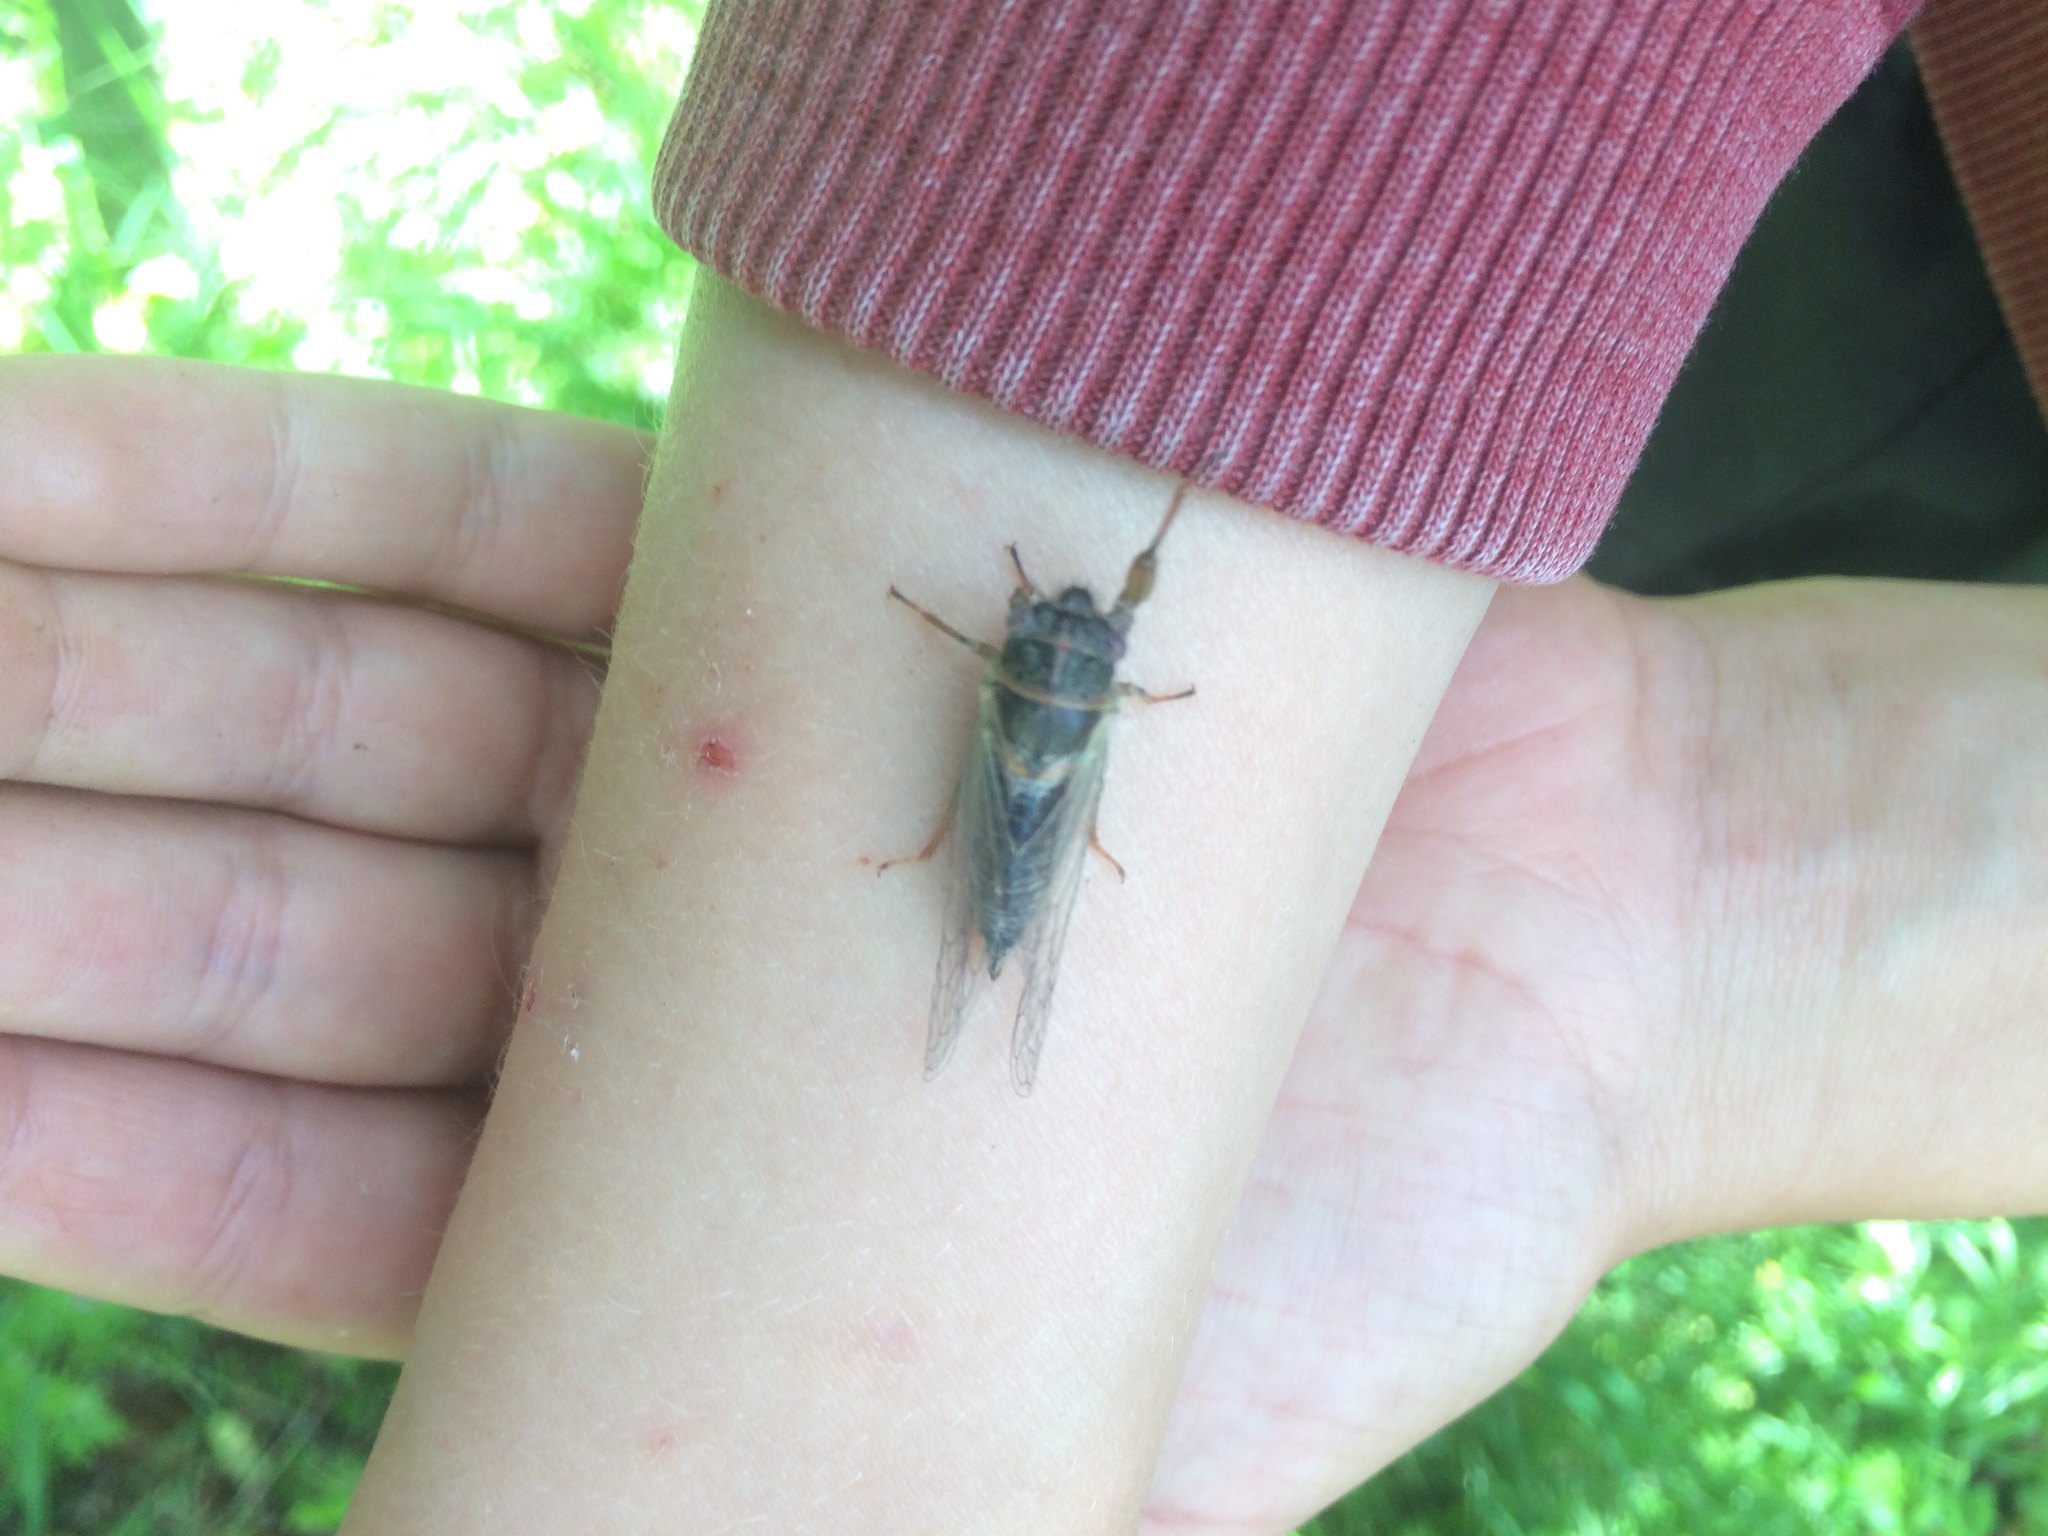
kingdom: Animalia
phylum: Arthropoda
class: Insecta
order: Hemiptera
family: Cicadidae
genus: Platypedia
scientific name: Platypedia
